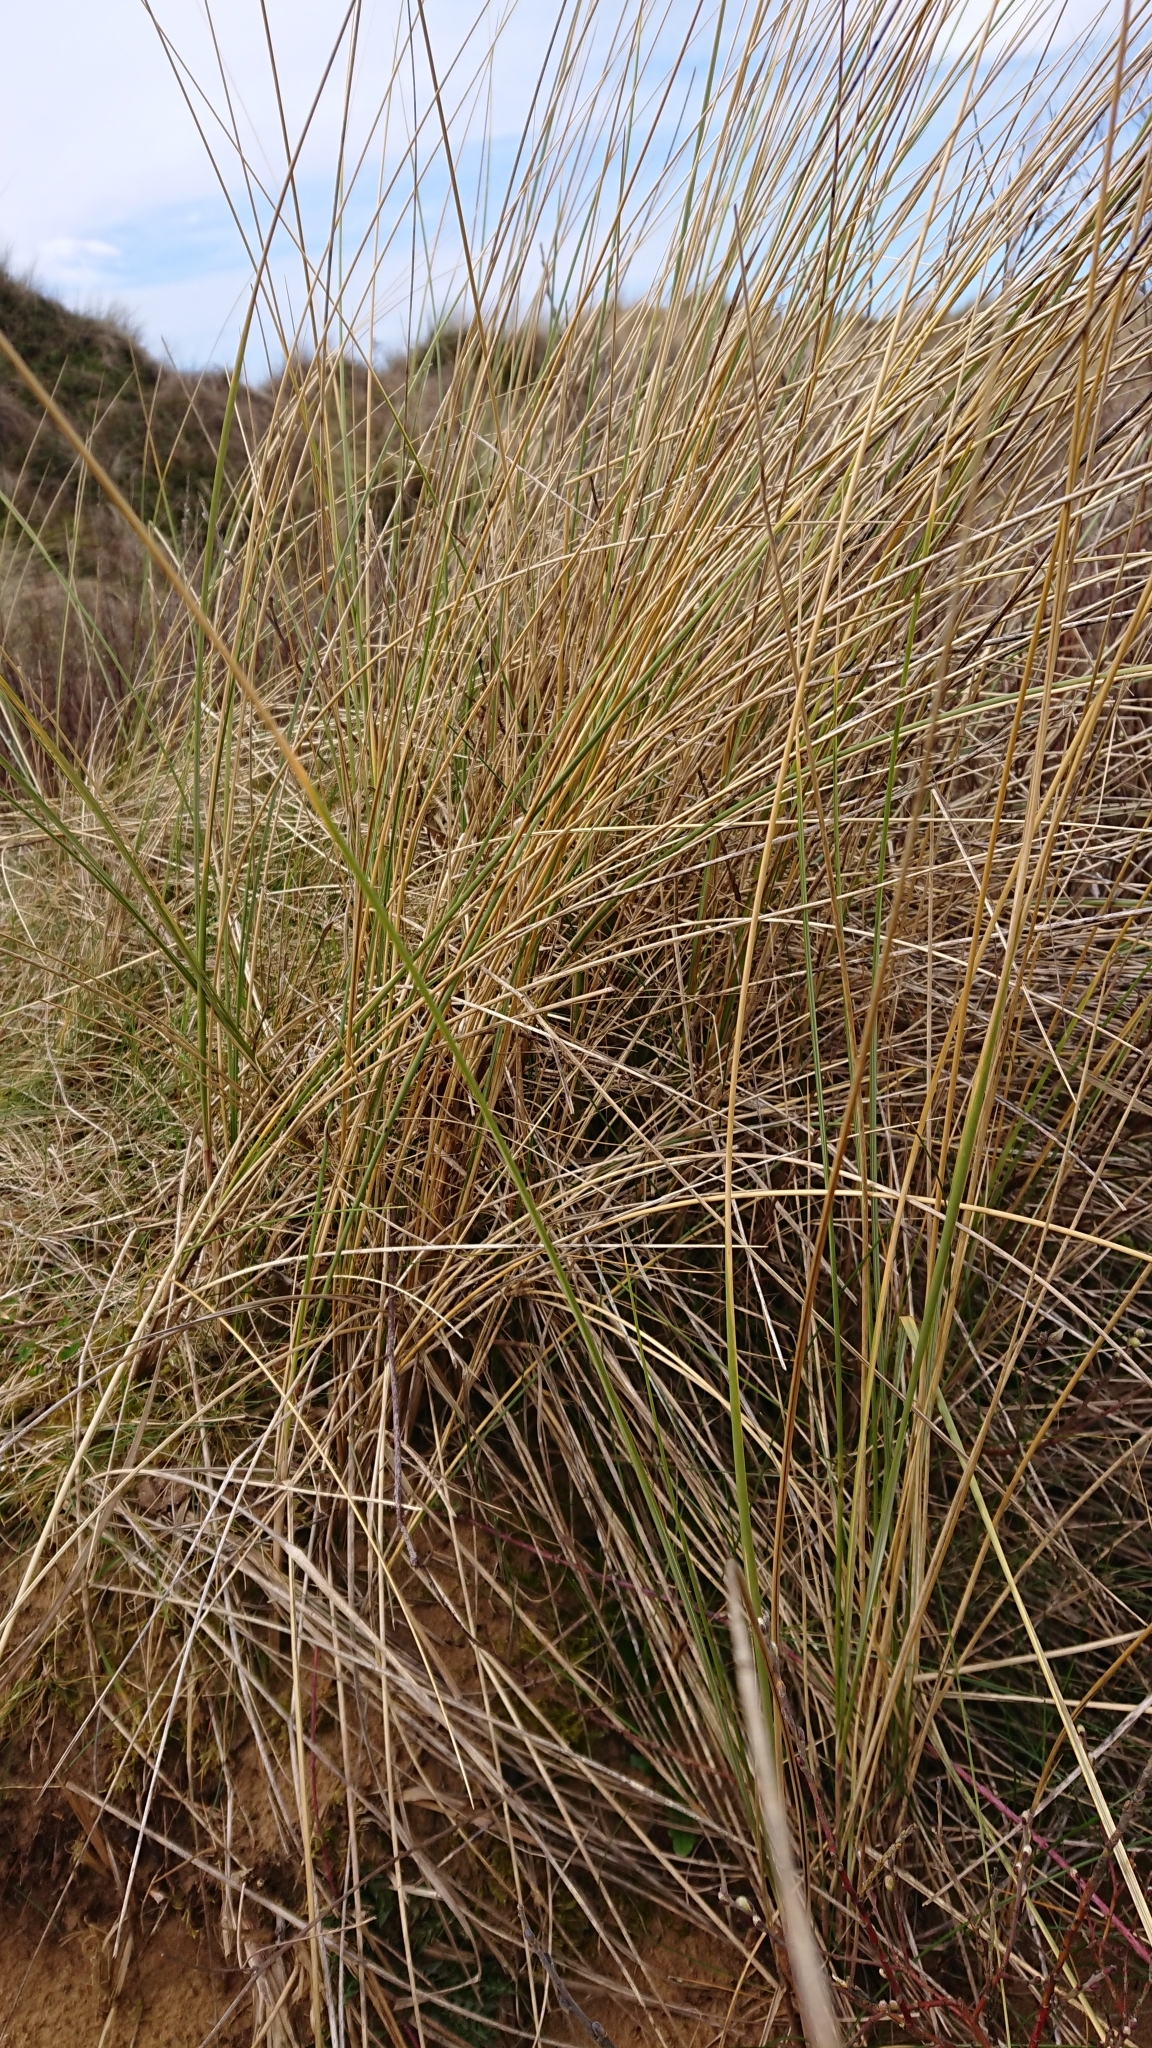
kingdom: Plantae
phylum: Tracheophyta
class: Liliopsida
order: Poales
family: Poaceae
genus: Calamagrostis
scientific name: Calamagrostis arenaria
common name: European beachgrass
